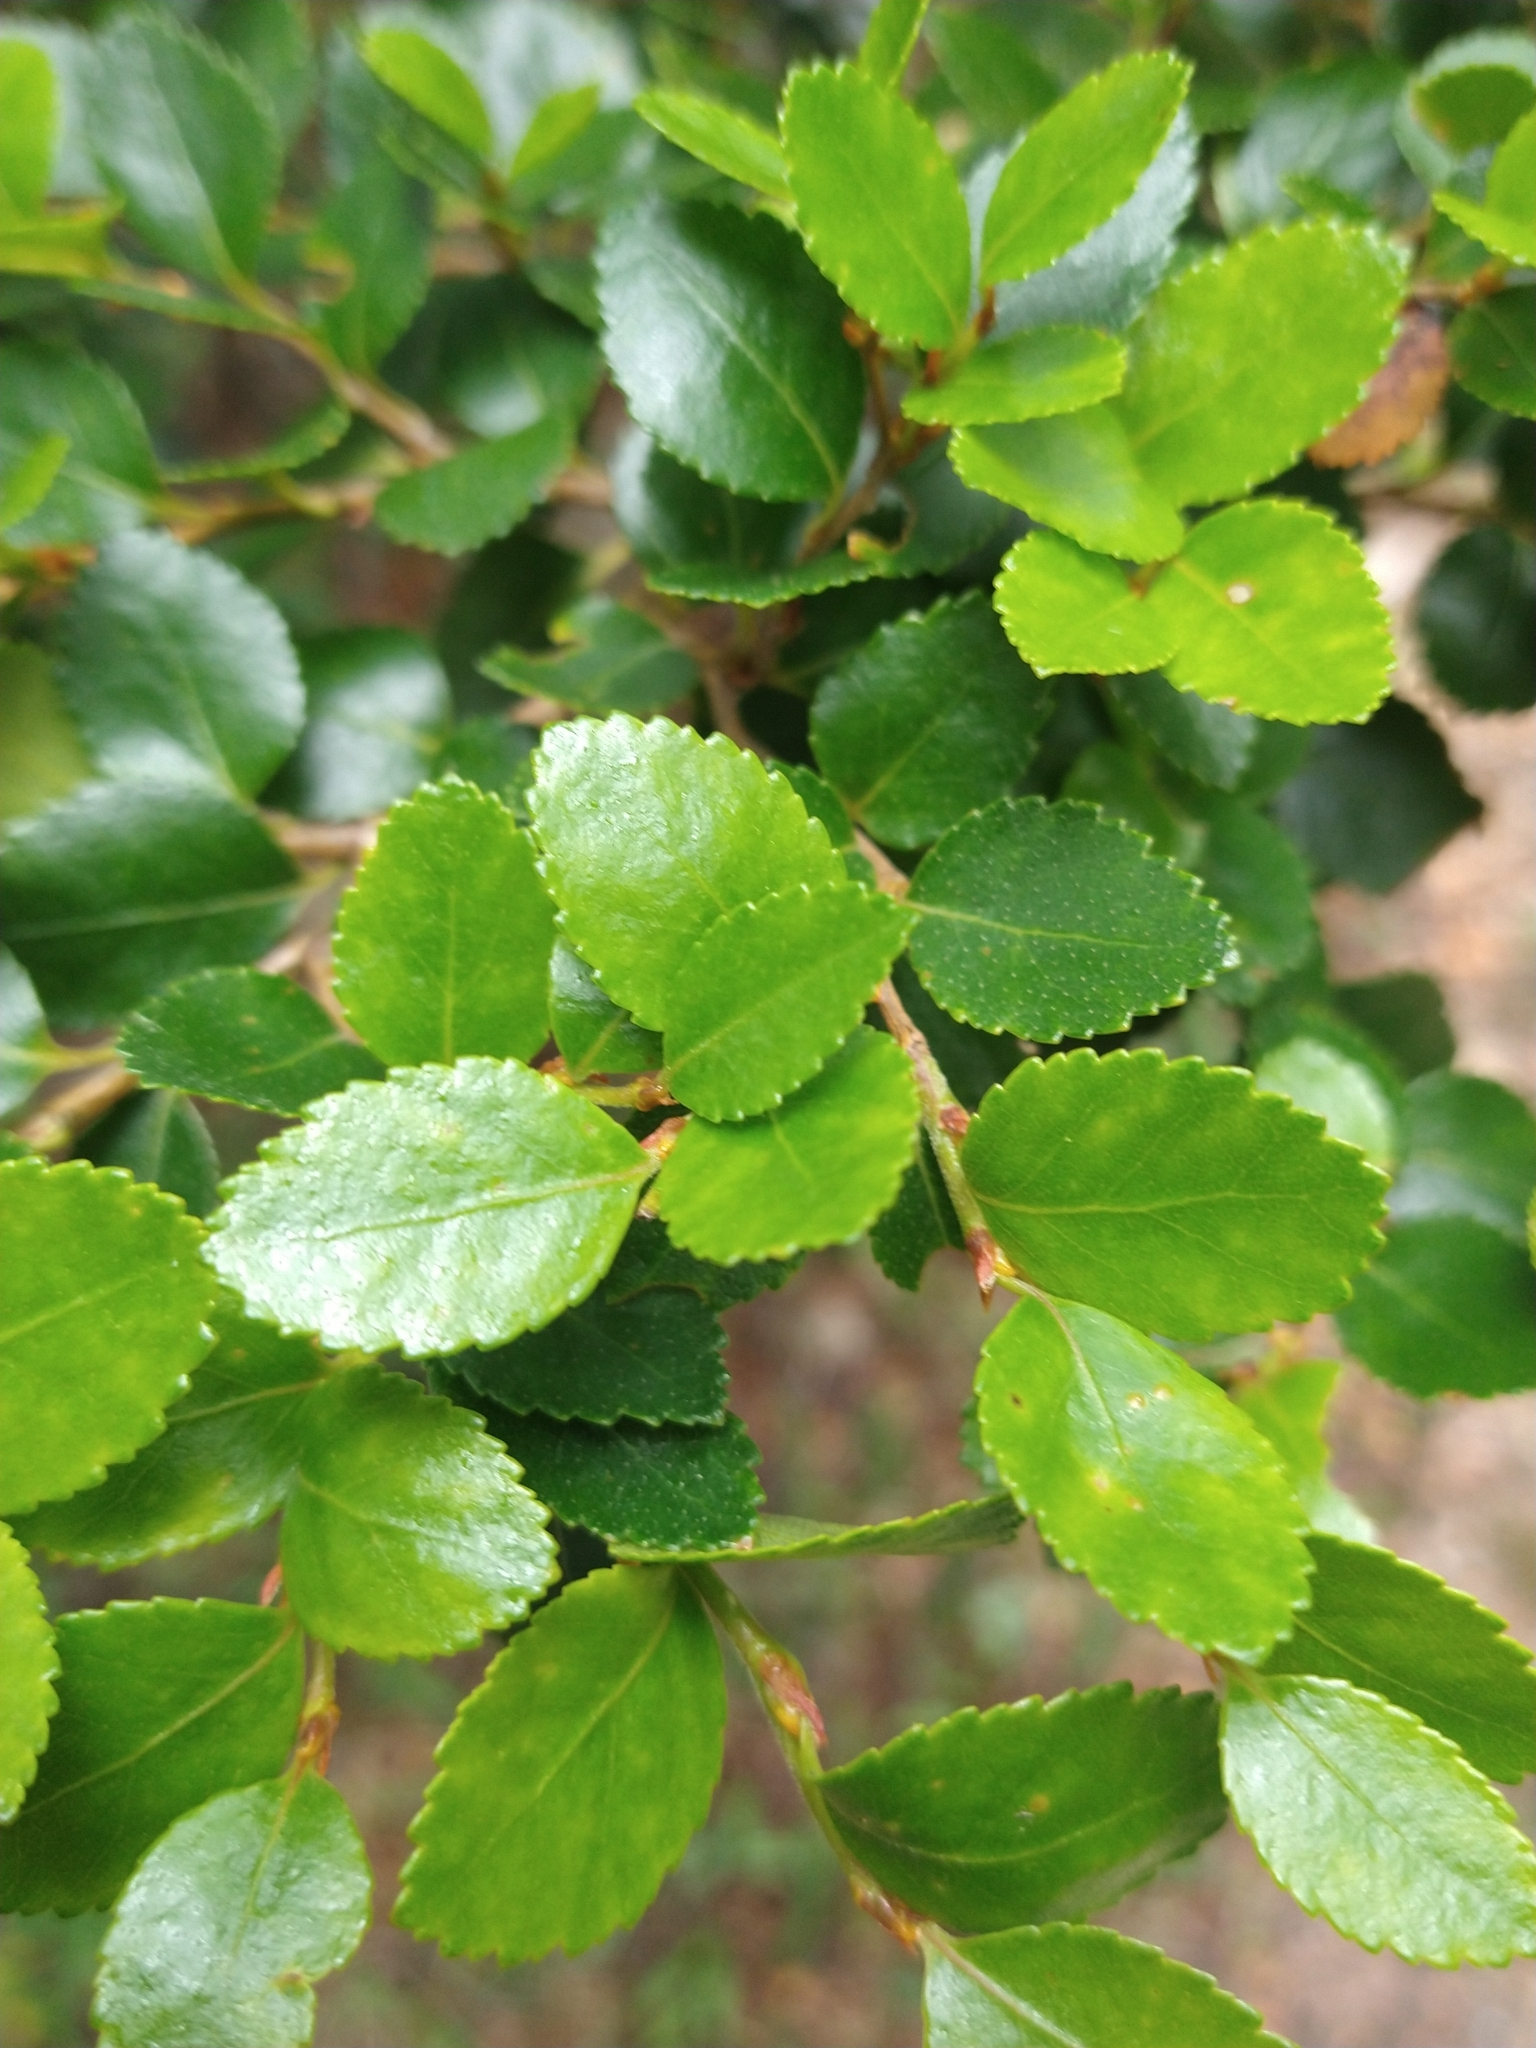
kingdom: Plantae
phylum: Tracheophyta
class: Magnoliopsida
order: Fagales
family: Nothofagaceae
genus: Nothofagus
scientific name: Nothofagus betuloides
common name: Magellan's beech
